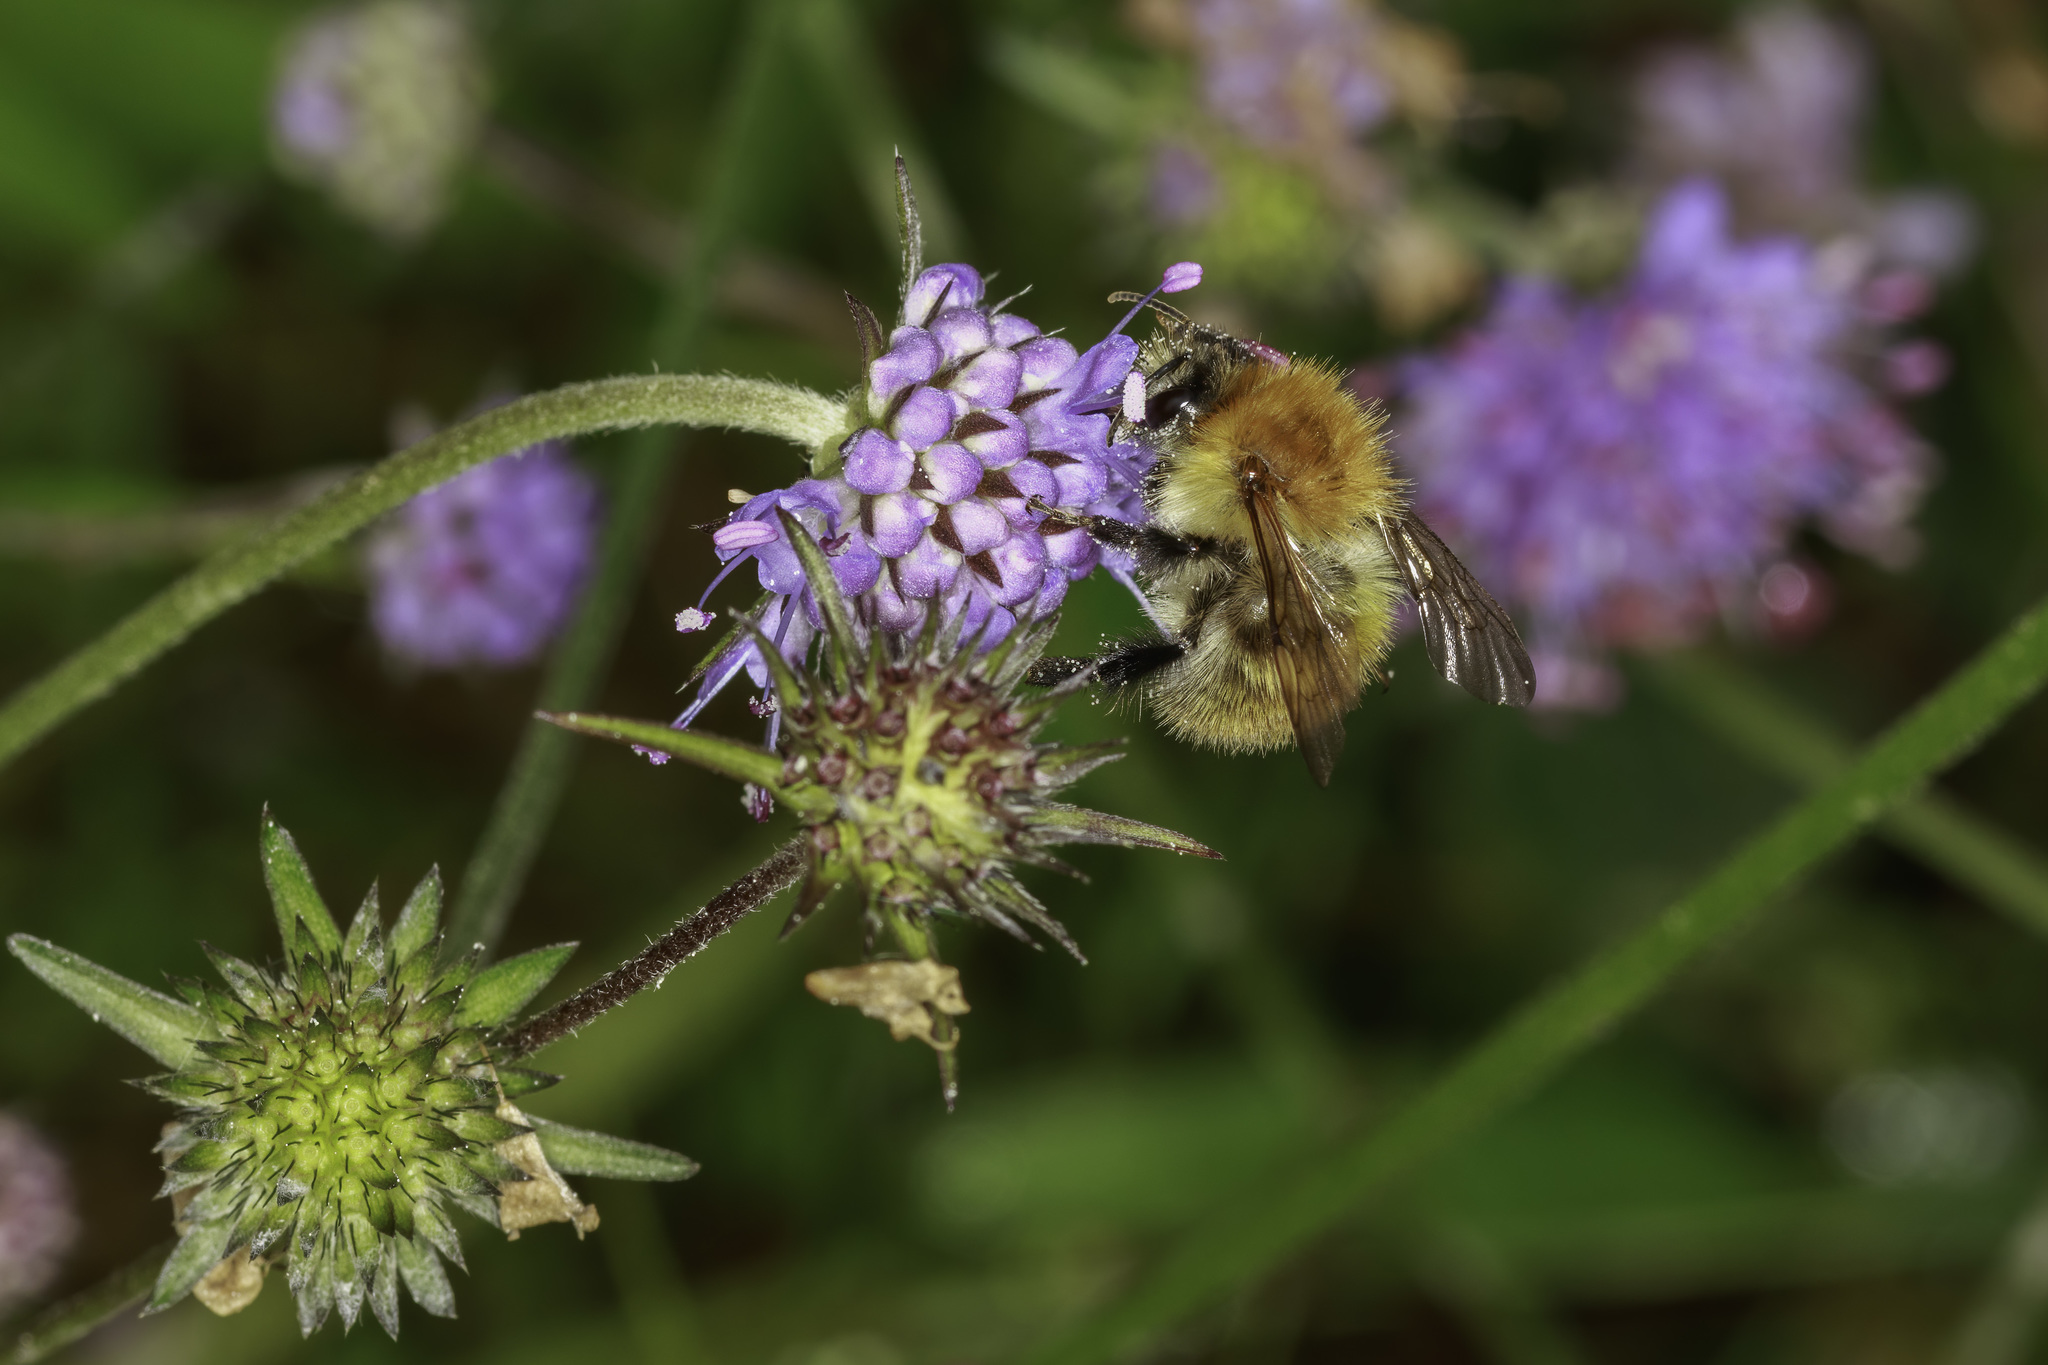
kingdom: Animalia
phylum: Arthropoda
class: Insecta
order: Hymenoptera
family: Apidae
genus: Bombus
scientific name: Bombus pascuorum
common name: Common carder bee
